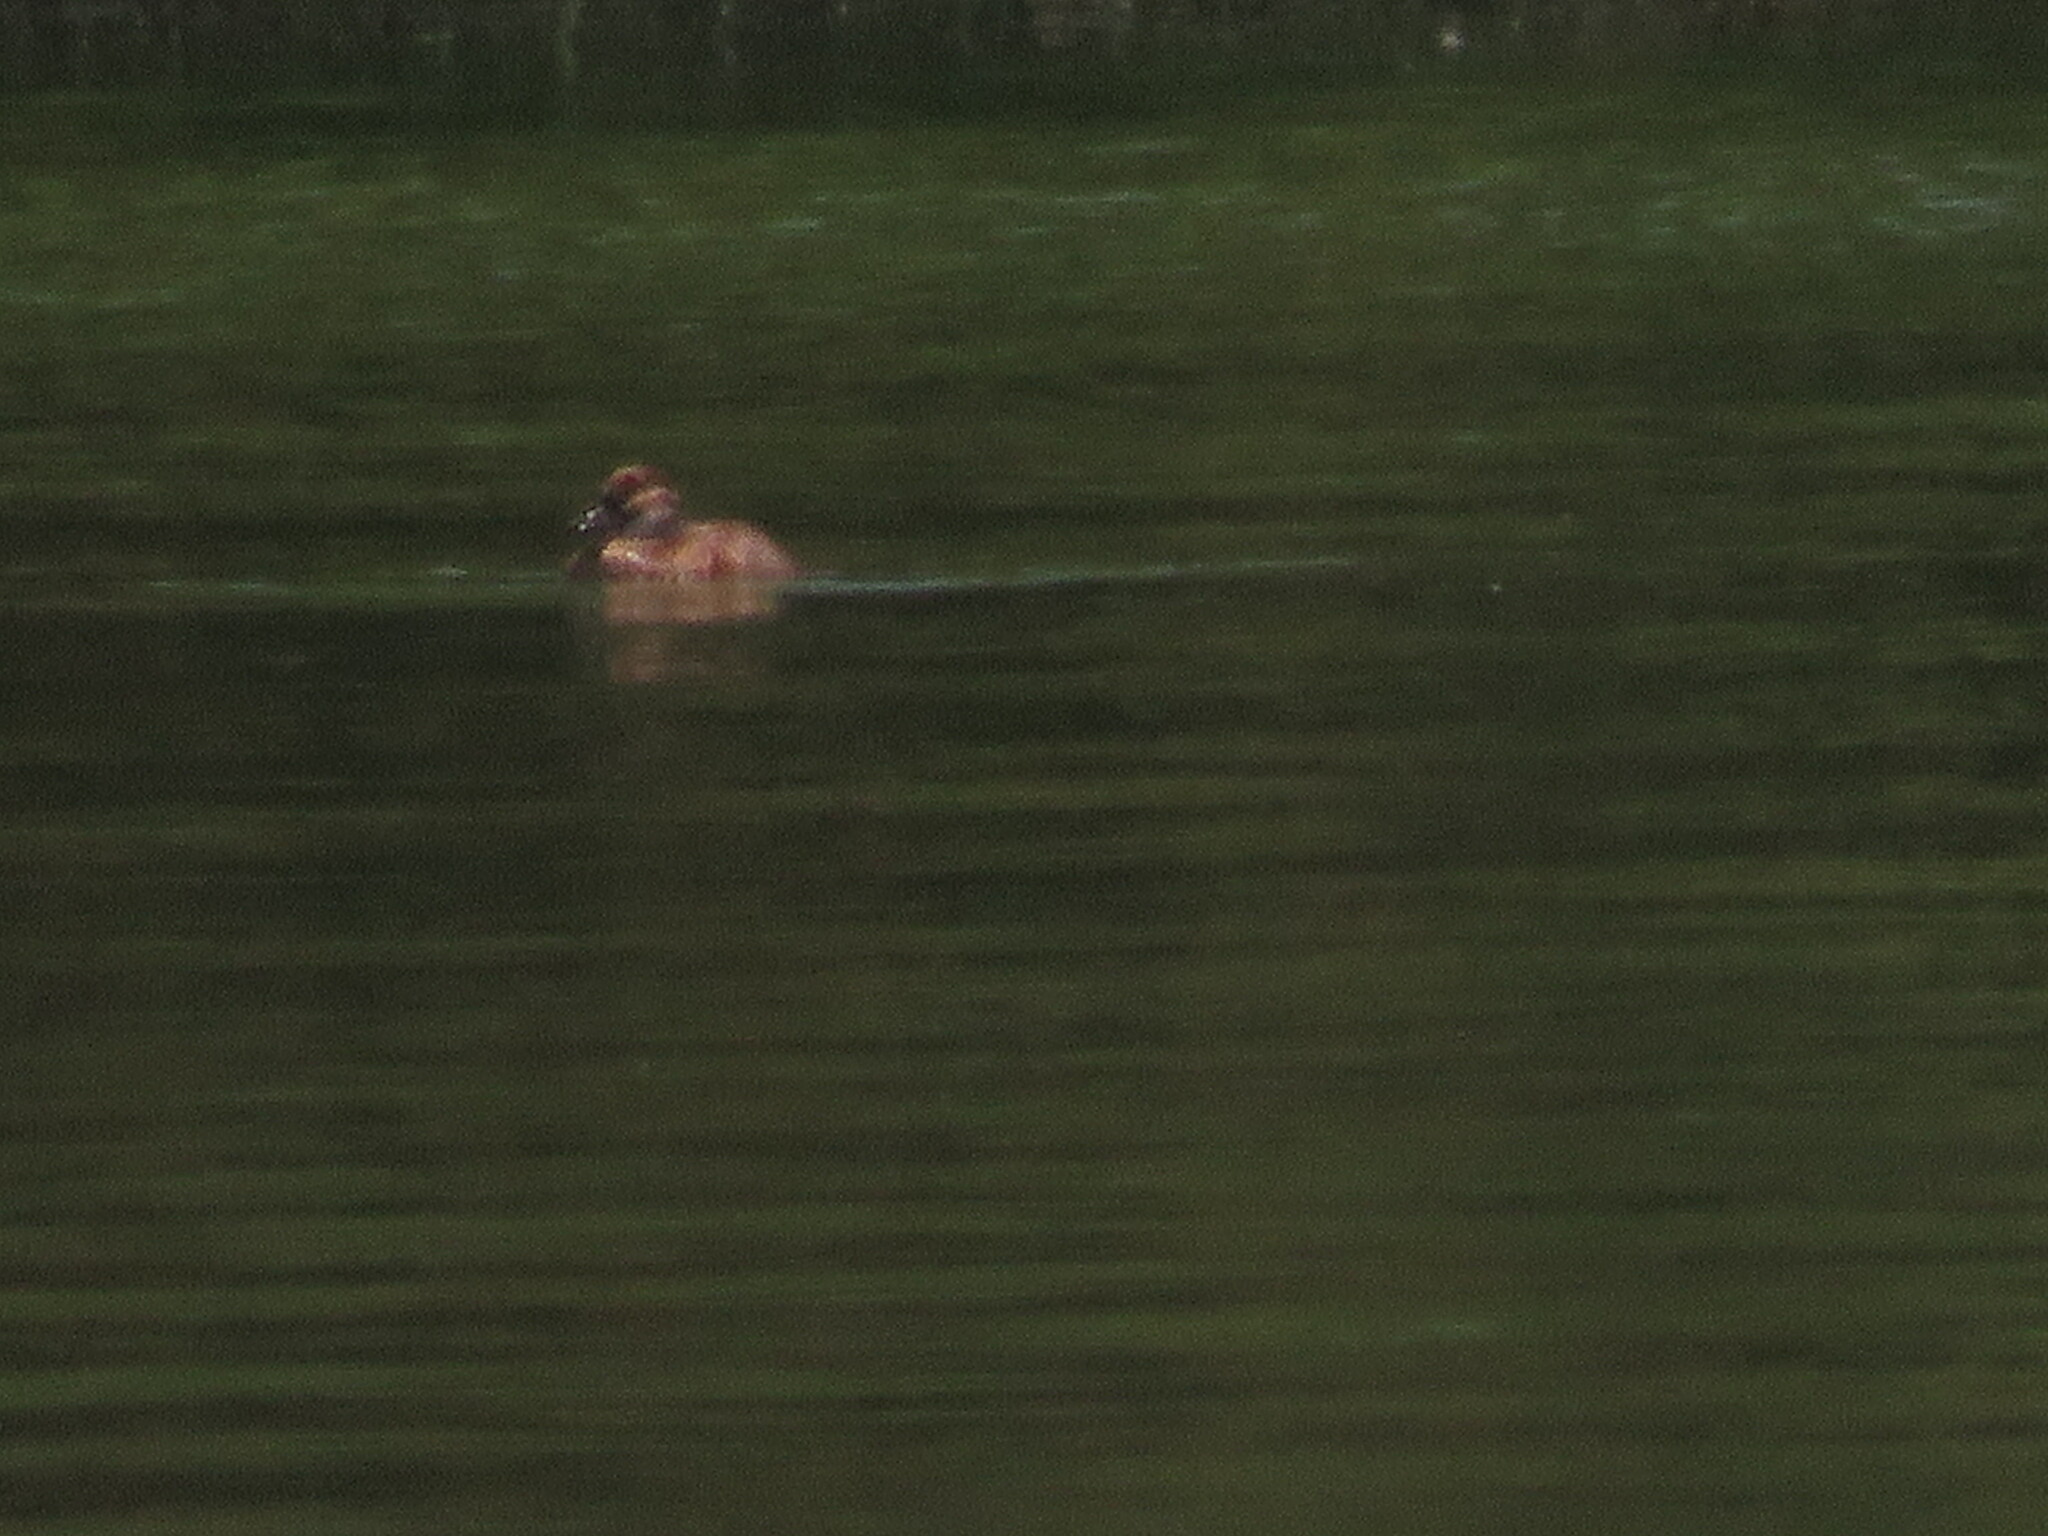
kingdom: Animalia
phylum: Chordata
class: Aves
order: Anseriformes
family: Anatidae
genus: Oxyura
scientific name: Oxyura vittata
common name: Lake duck
